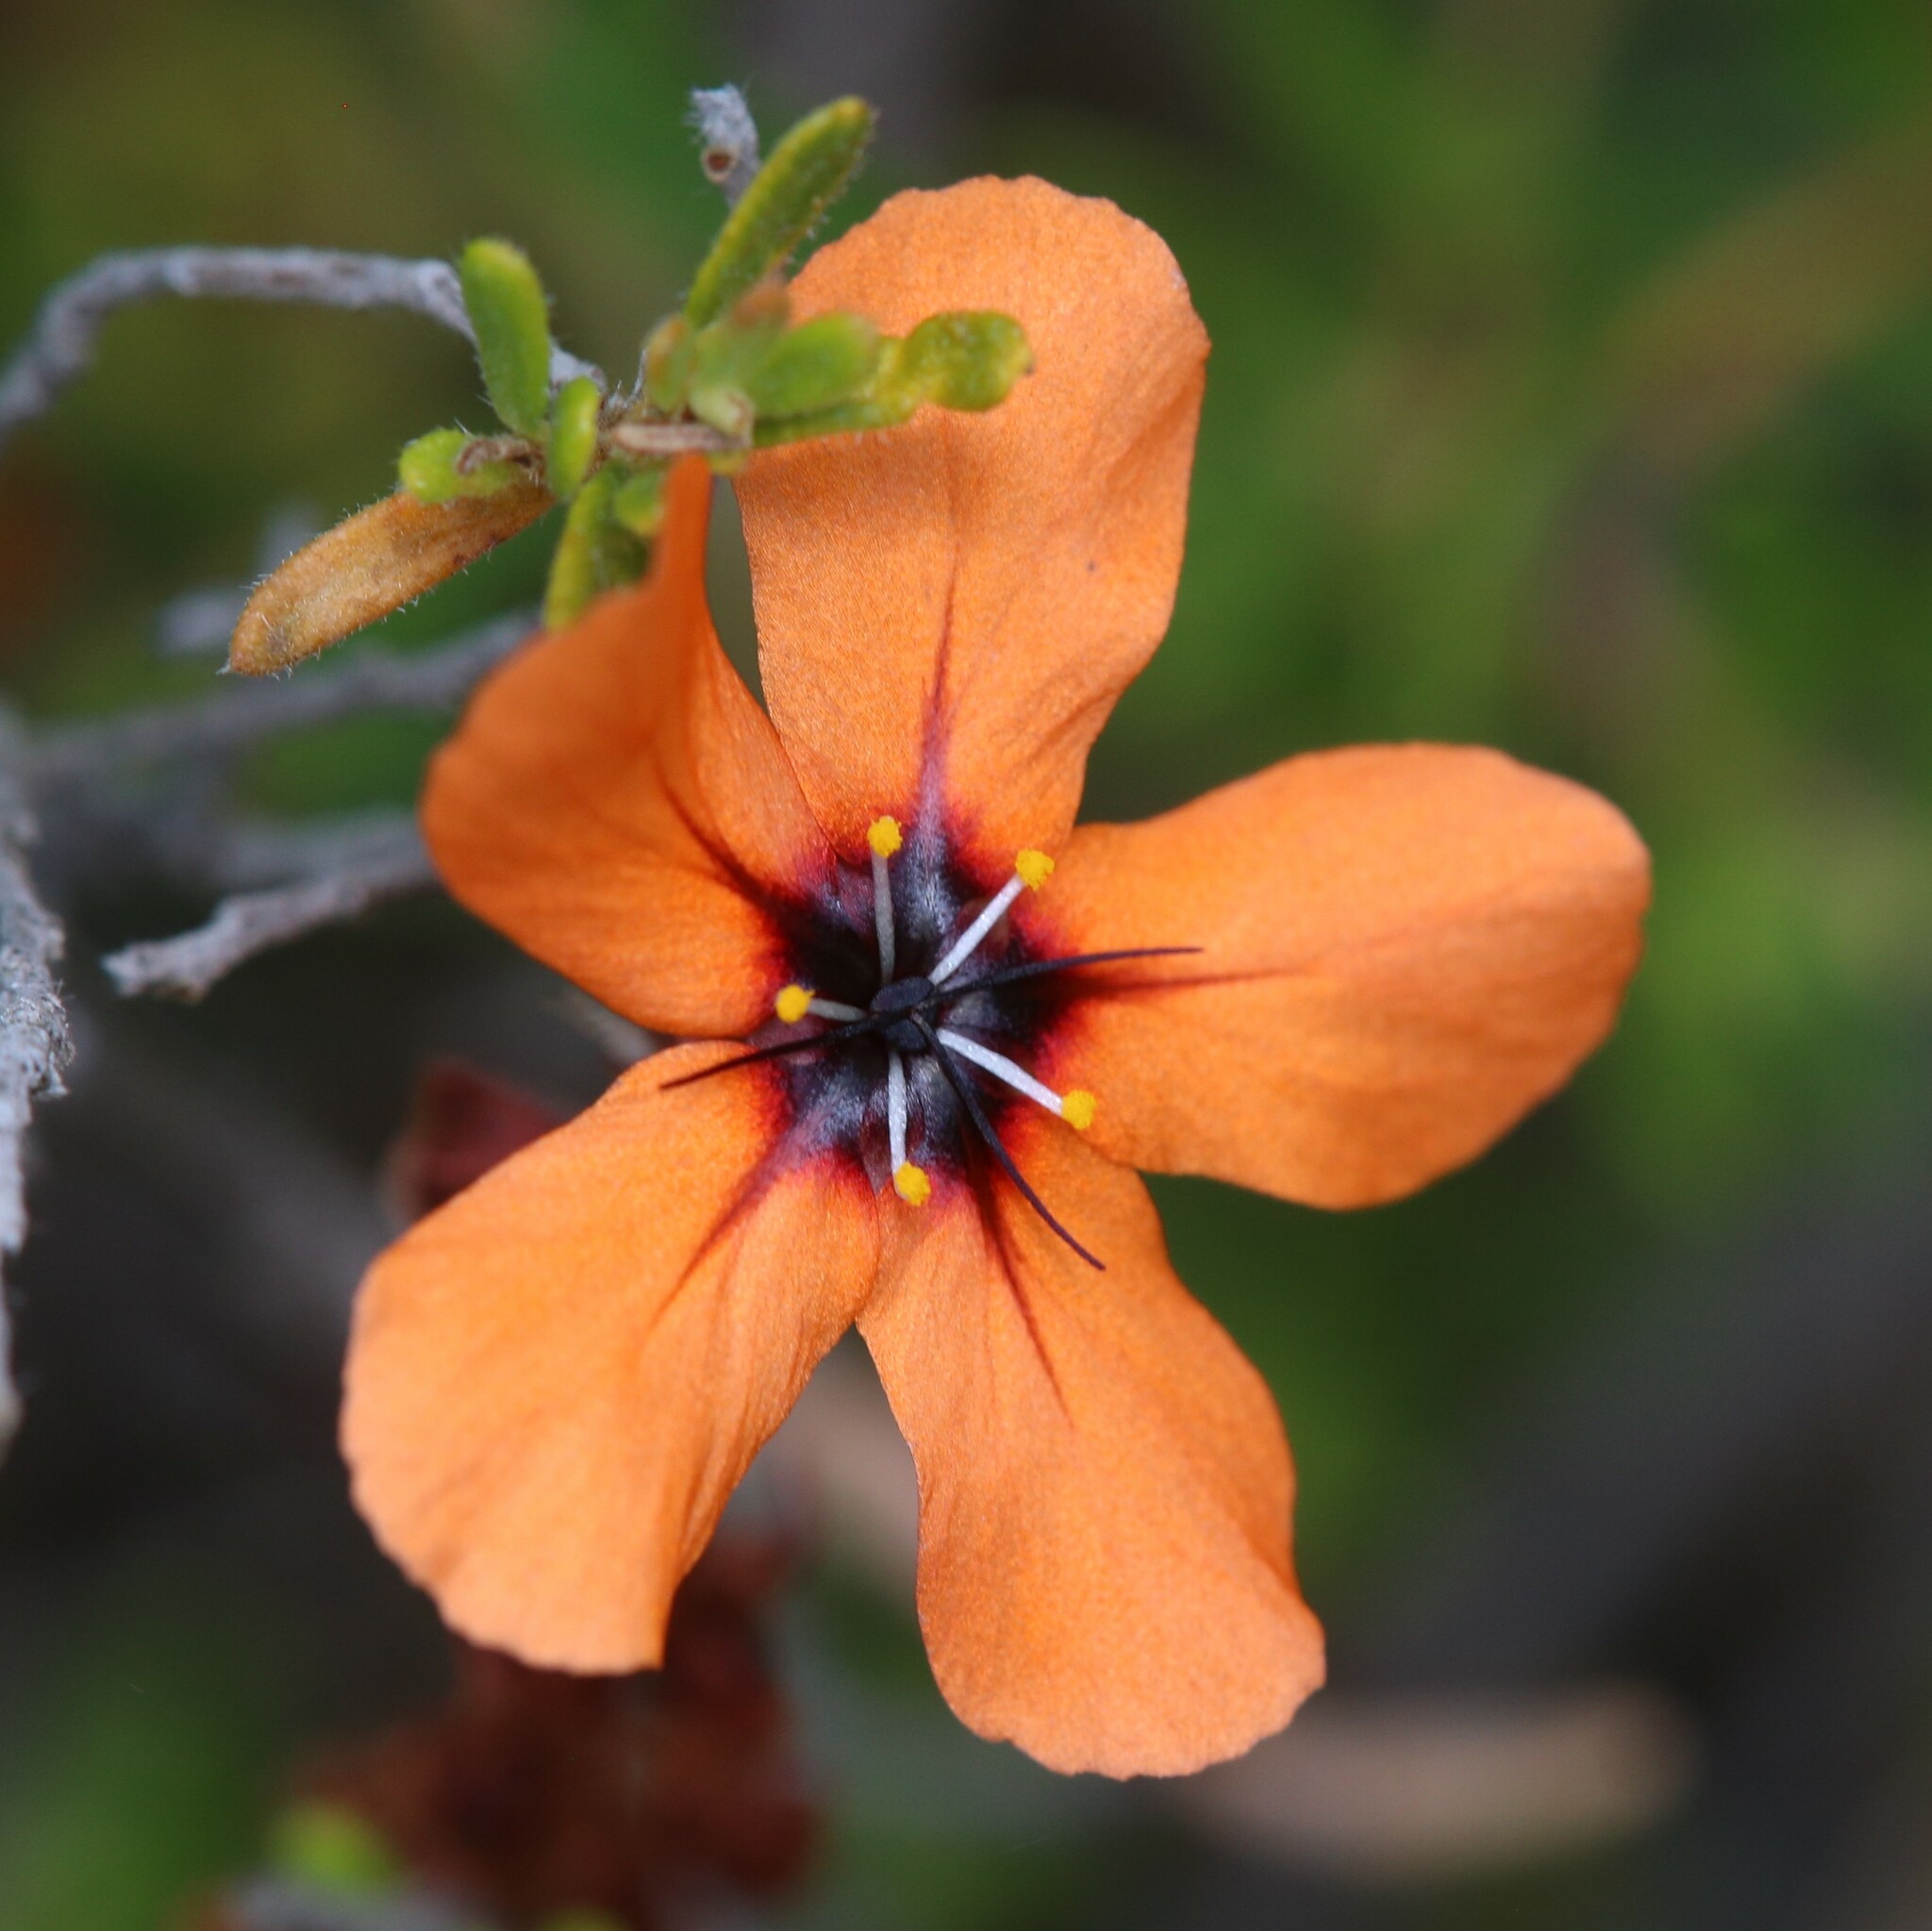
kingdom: Plantae
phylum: Tracheophyta
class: Magnoliopsida
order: Caryophyllales
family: Droseraceae
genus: Drosera
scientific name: Drosera miniata
